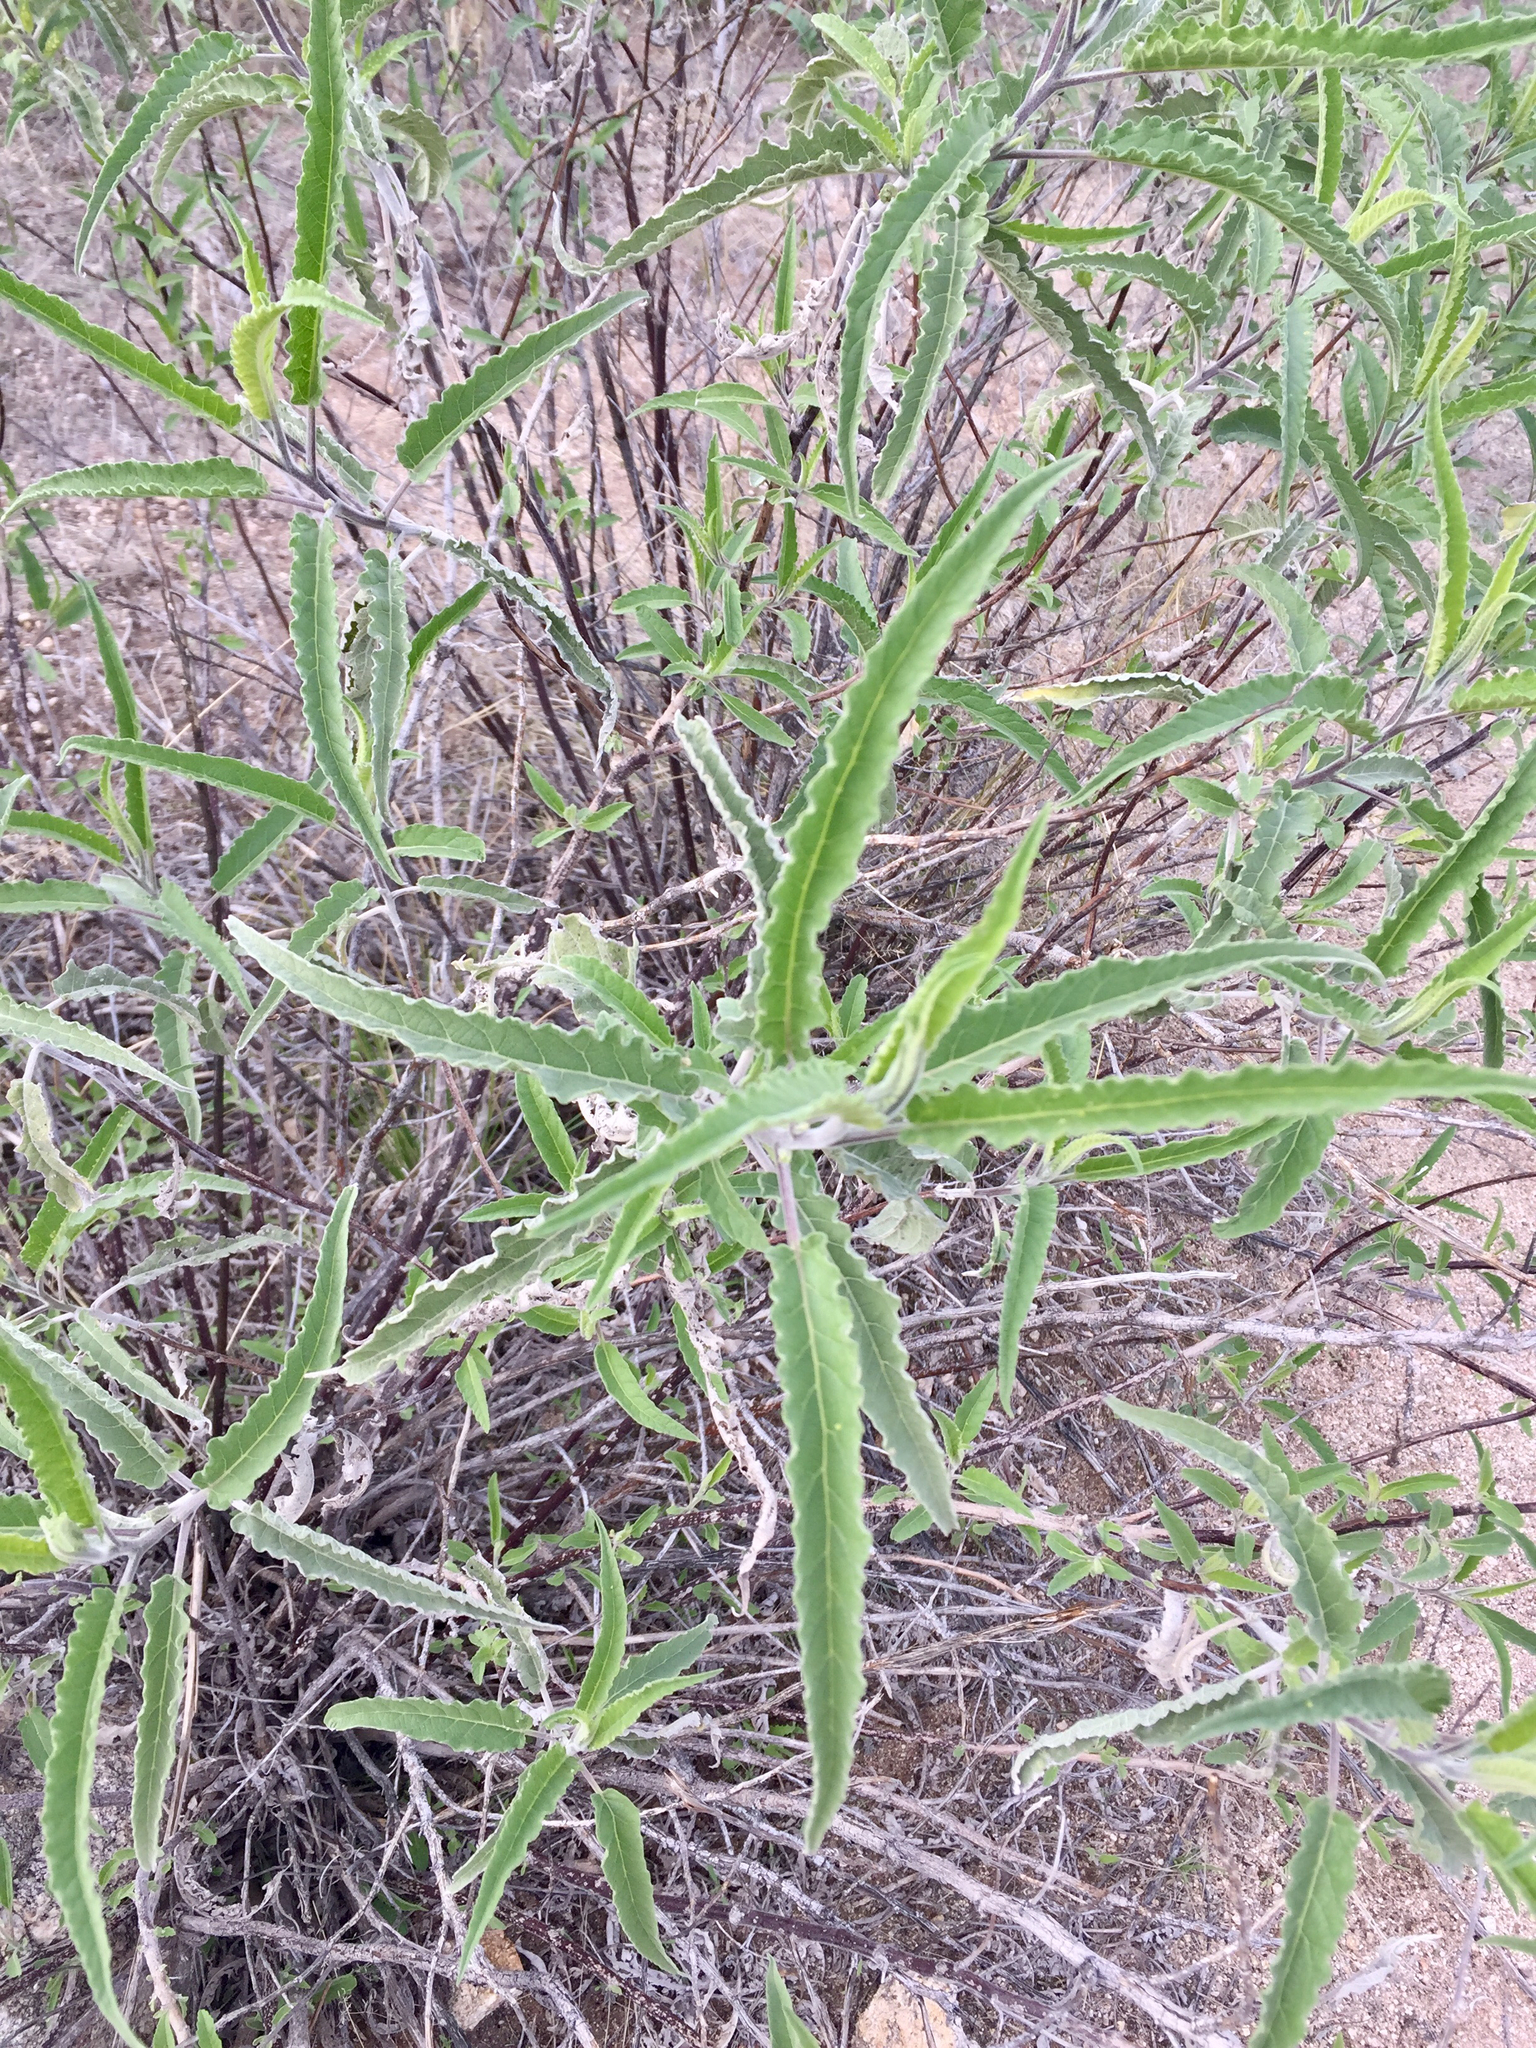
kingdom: Plantae
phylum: Tracheophyta
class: Magnoliopsida
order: Asterales
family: Asteraceae
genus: Ambrosia
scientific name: Ambrosia ambrosioides
